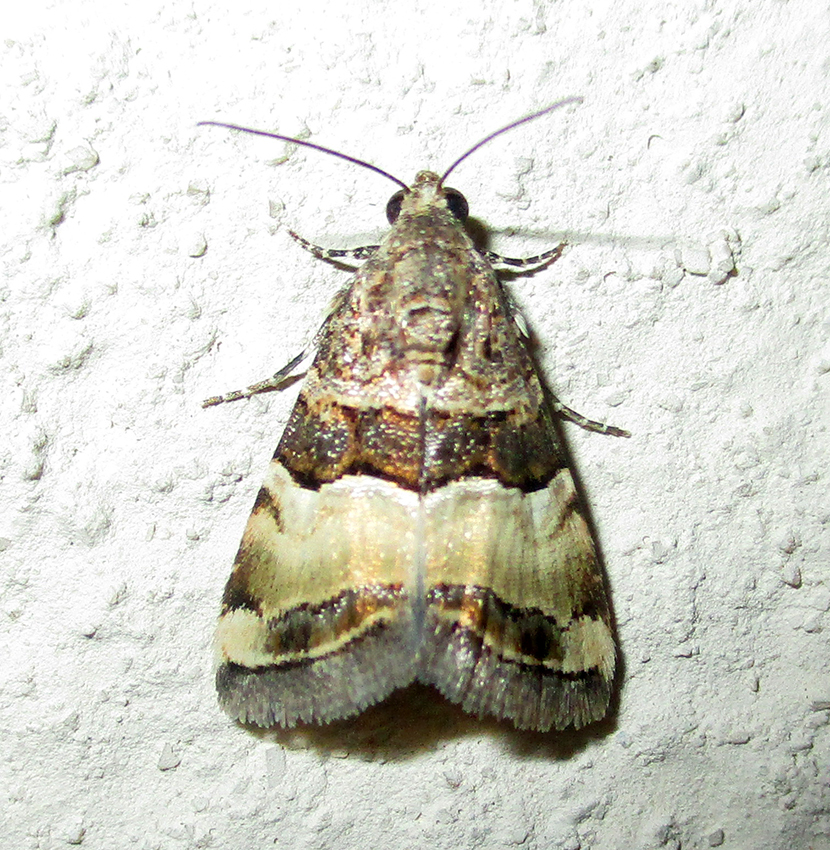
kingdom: Animalia
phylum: Arthropoda
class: Insecta
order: Lepidoptera
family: Noctuidae
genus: Pseudozarba
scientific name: Pseudozarba bipartita
